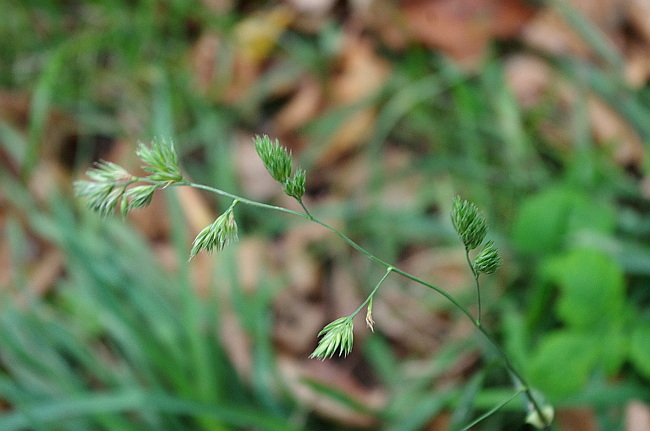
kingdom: Plantae
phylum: Tracheophyta
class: Liliopsida
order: Poales
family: Poaceae
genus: Dactylis
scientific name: Dactylis glomerata
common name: Orchardgrass
